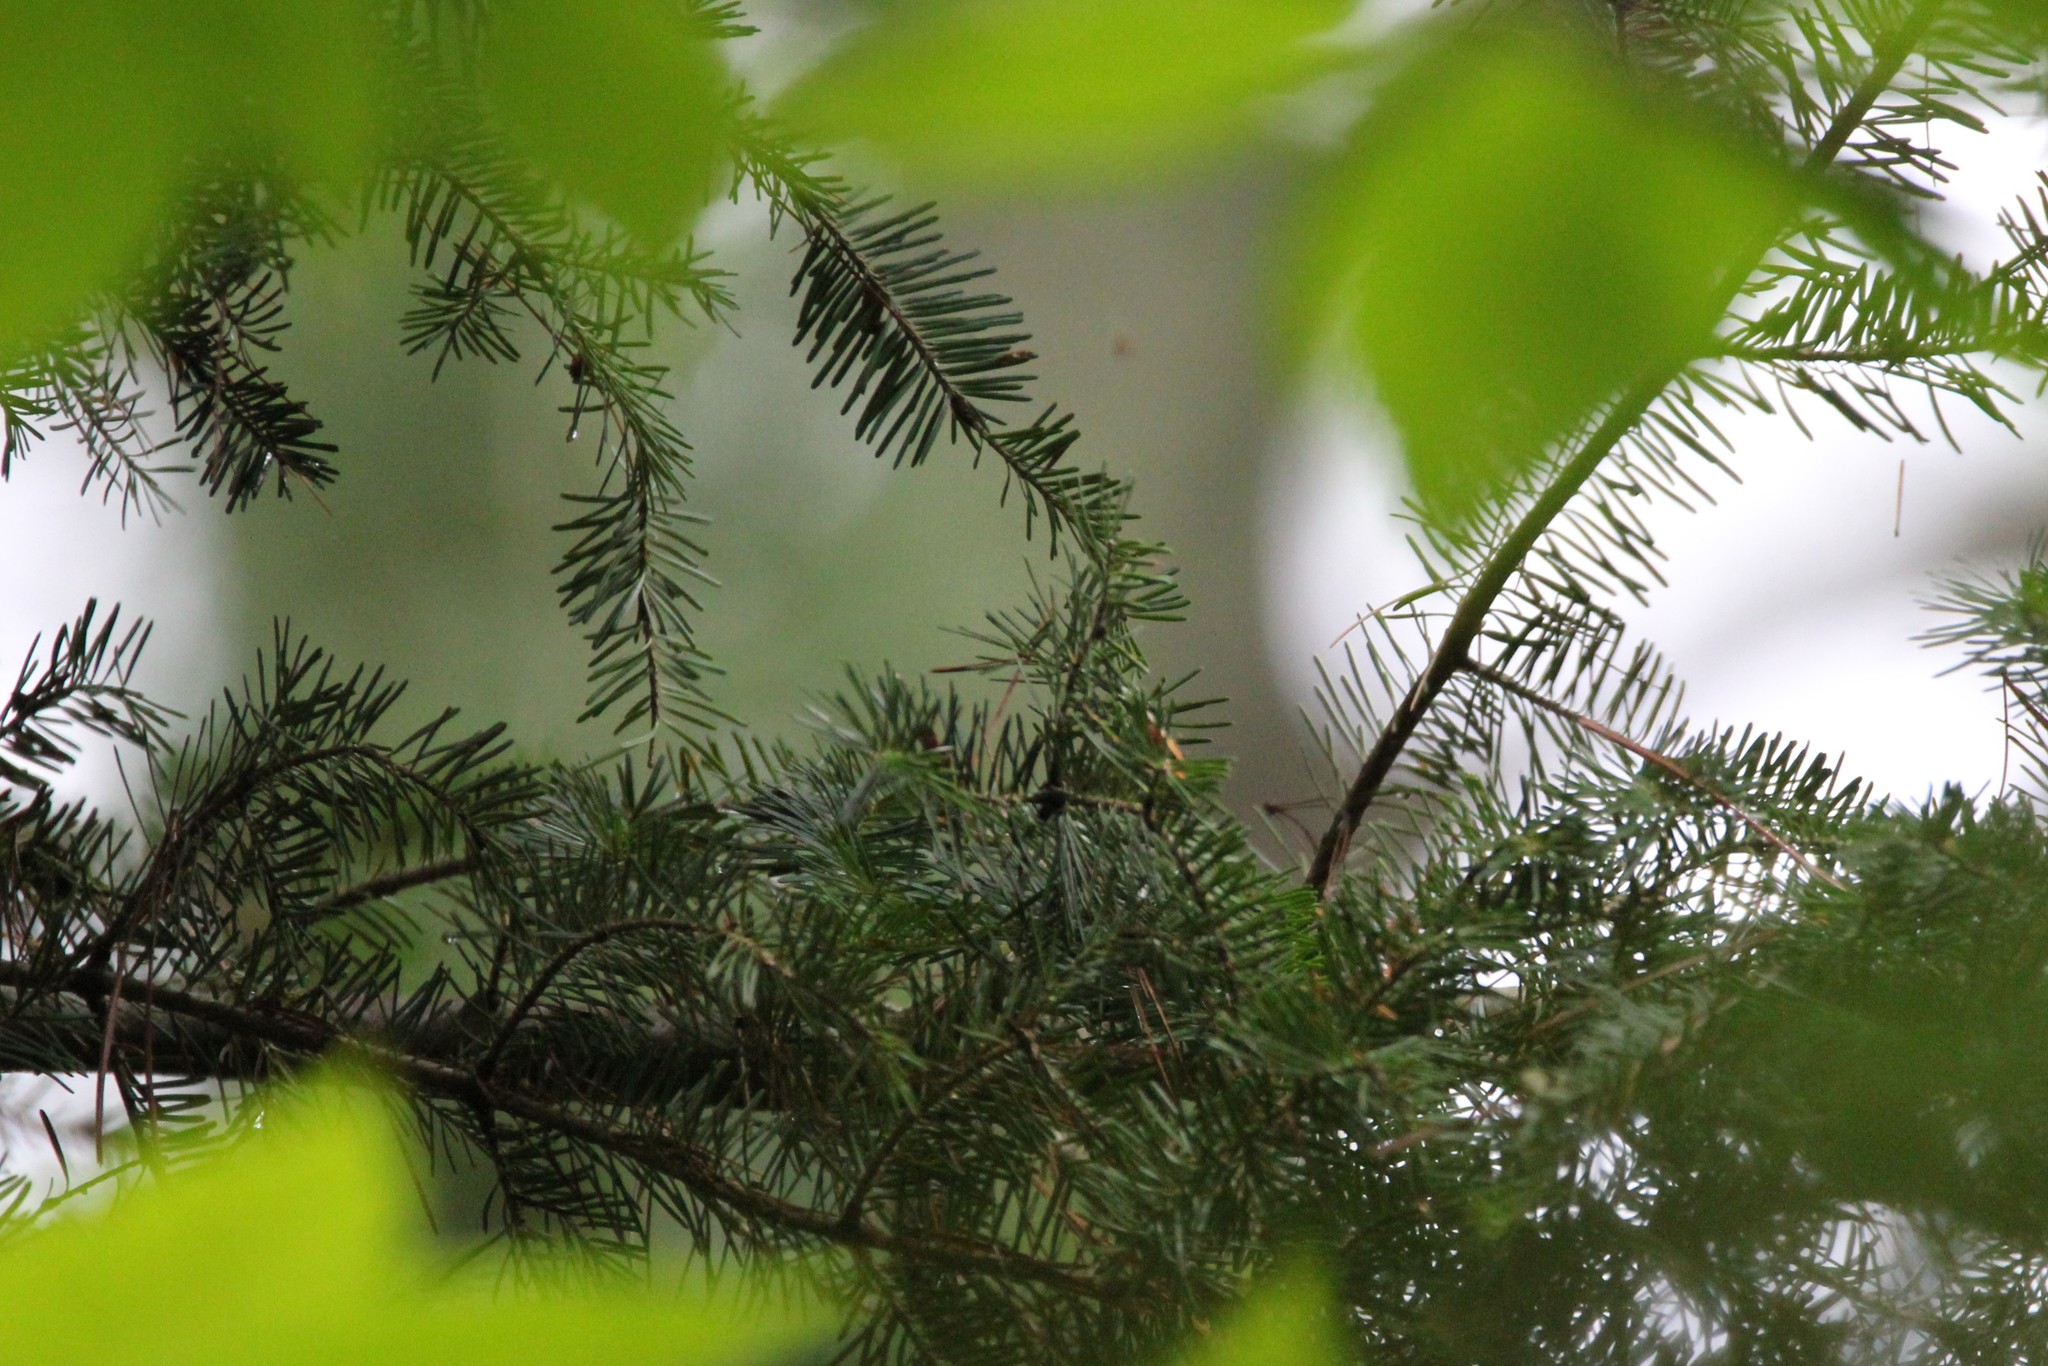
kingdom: Plantae
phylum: Tracheophyta
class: Pinopsida
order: Pinales
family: Pinaceae
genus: Abies
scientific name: Abies balsamea
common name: Balsam fir
